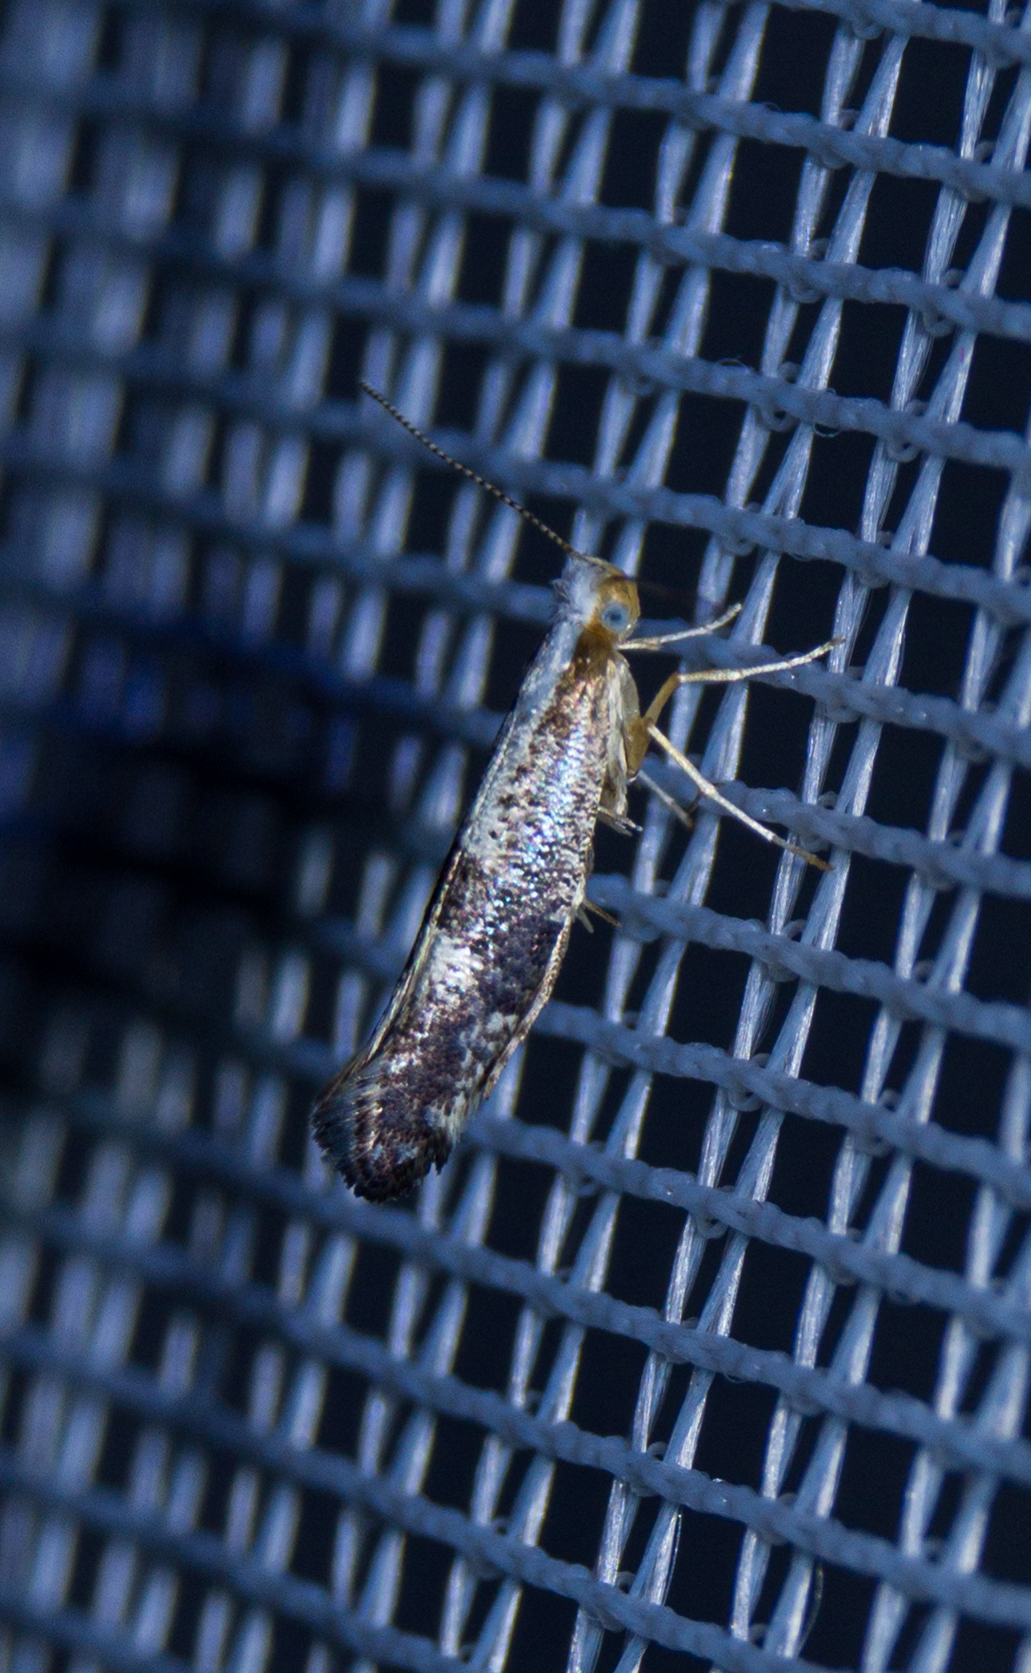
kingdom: Animalia
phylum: Arthropoda
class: Insecta
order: Lepidoptera
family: Argyresthiidae
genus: Argyresthia
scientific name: Argyresthia spinosella
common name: Blackthorn argent
